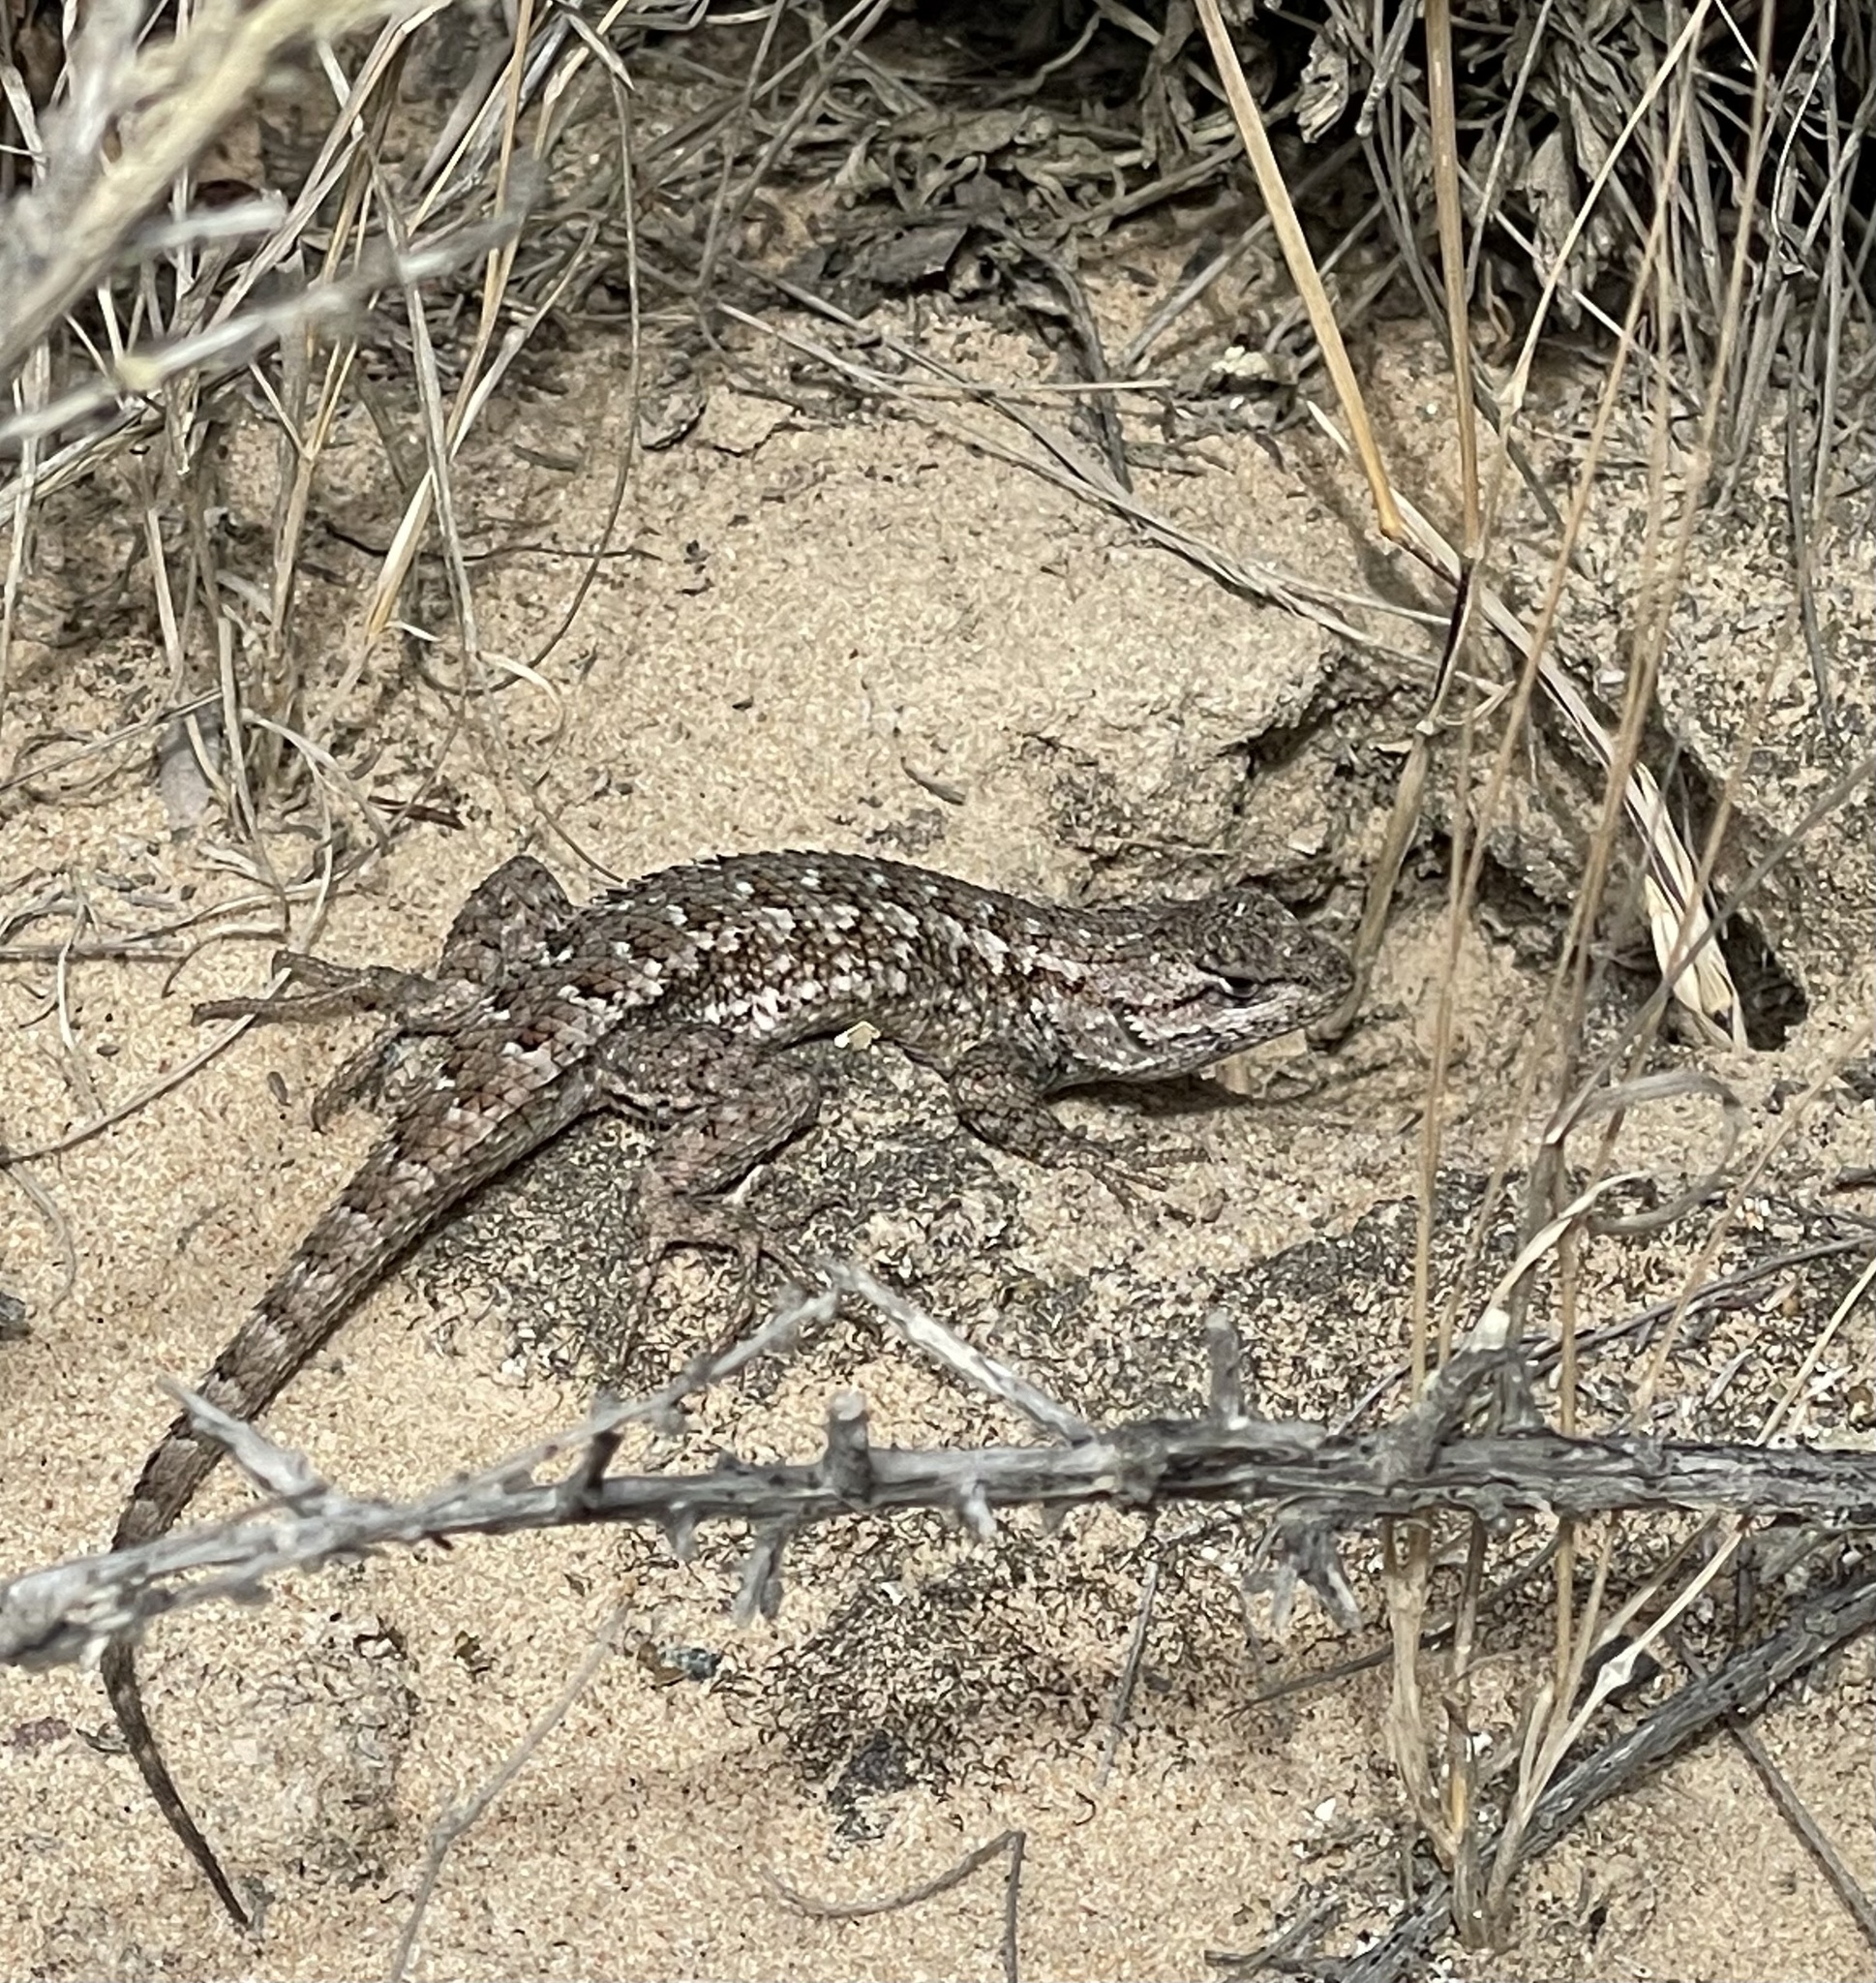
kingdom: Animalia
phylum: Chordata
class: Squamata
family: Phrynosomatidae
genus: Sceloporus
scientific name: Sceloporus occidentalis
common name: Western fence lizard
